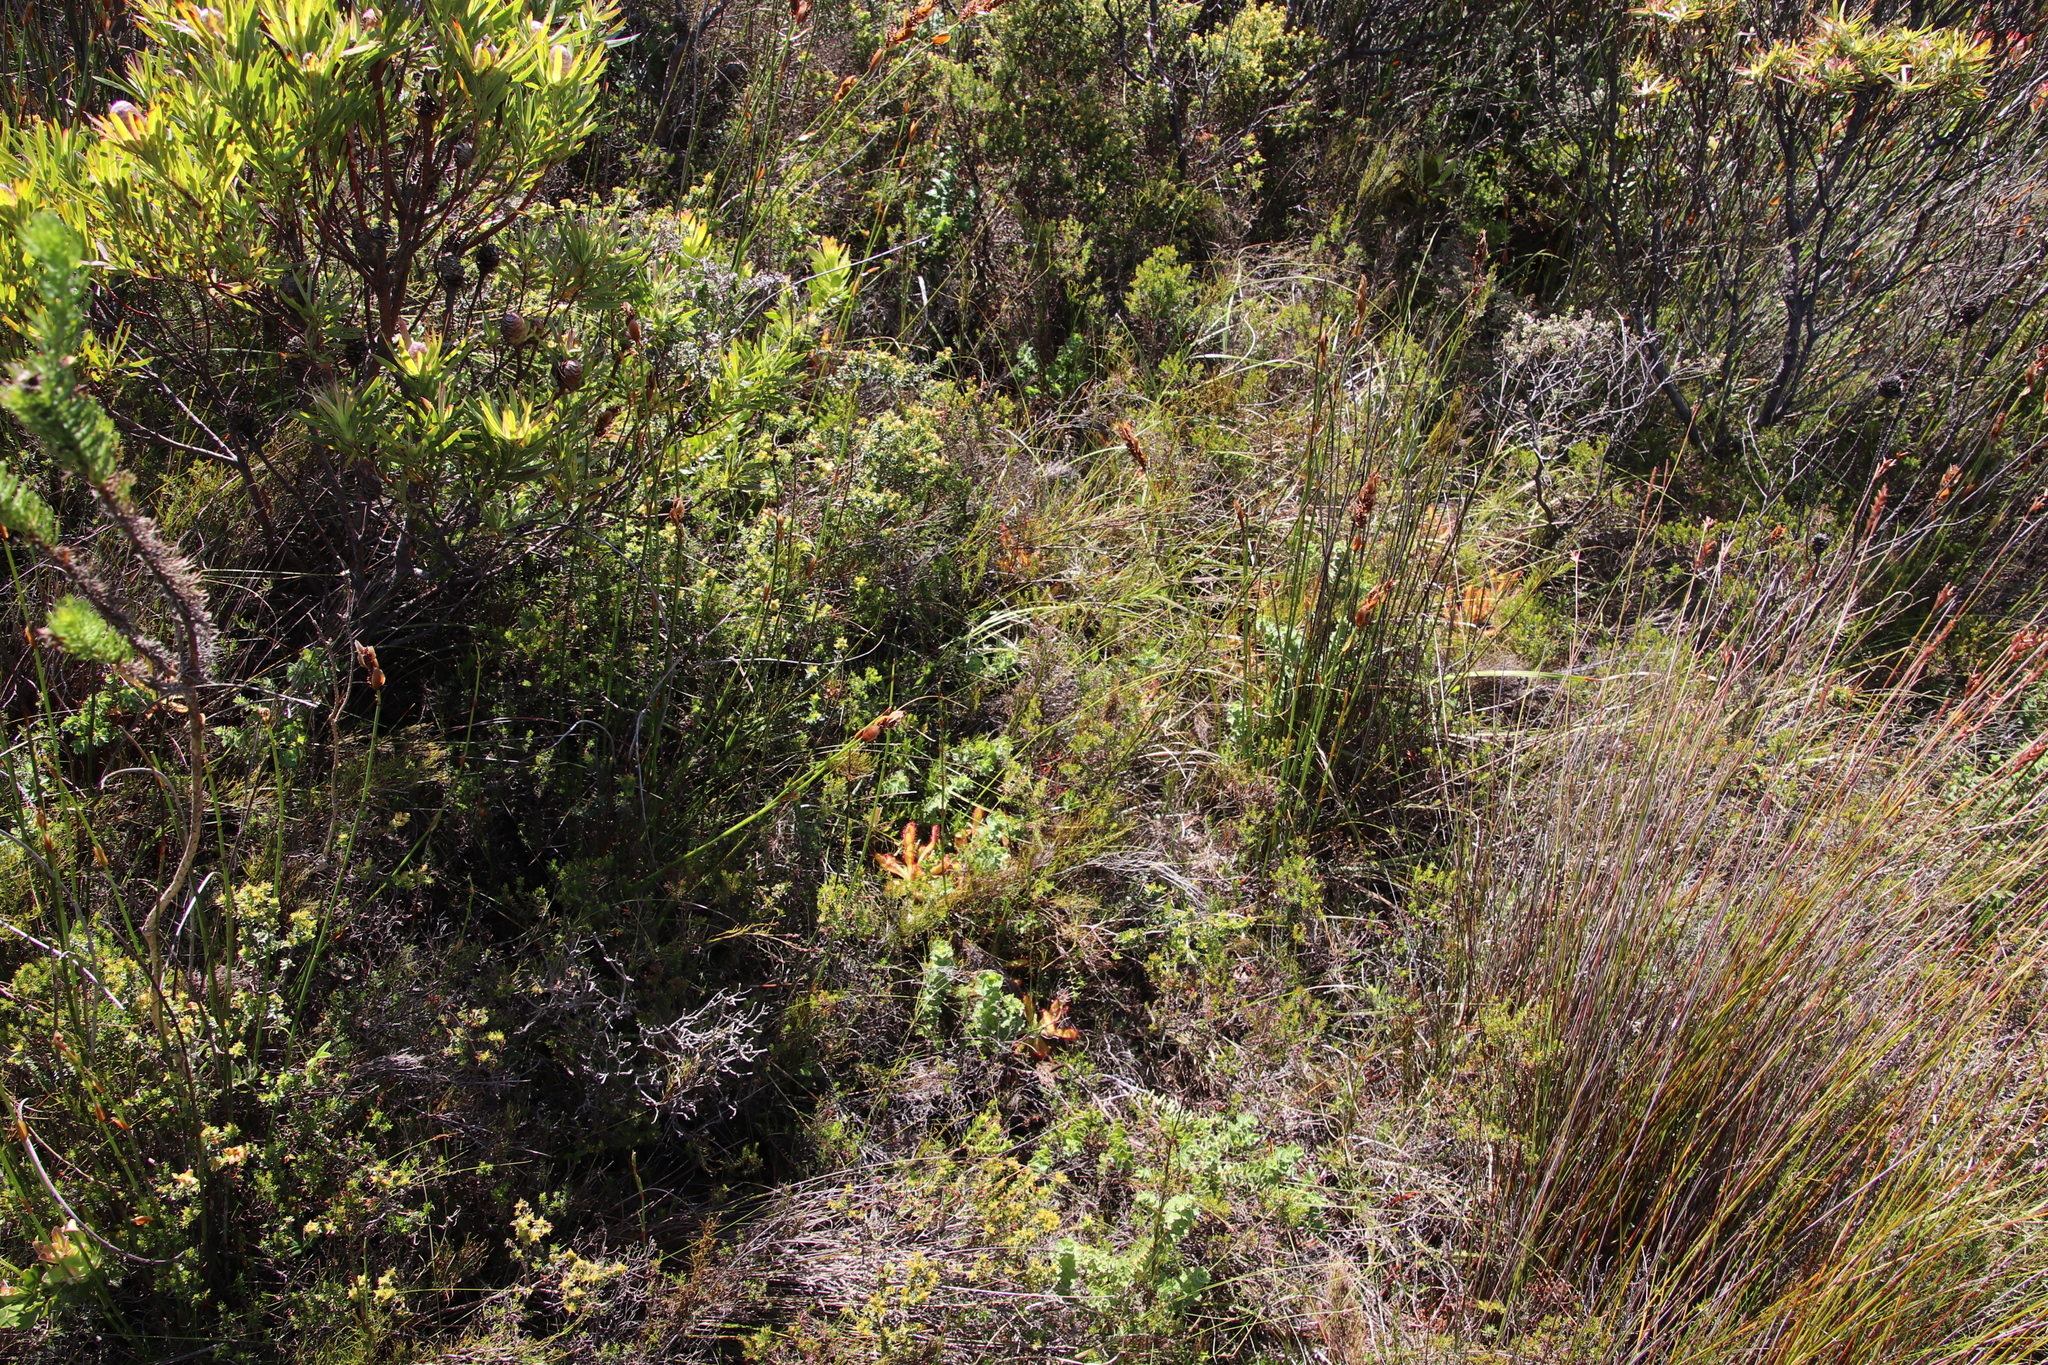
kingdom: Plantae
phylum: Tracheophyta
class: Magnoliopsida
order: Caryophyllales
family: Droseraceae
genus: Drosera
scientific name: Drosera hilaris
